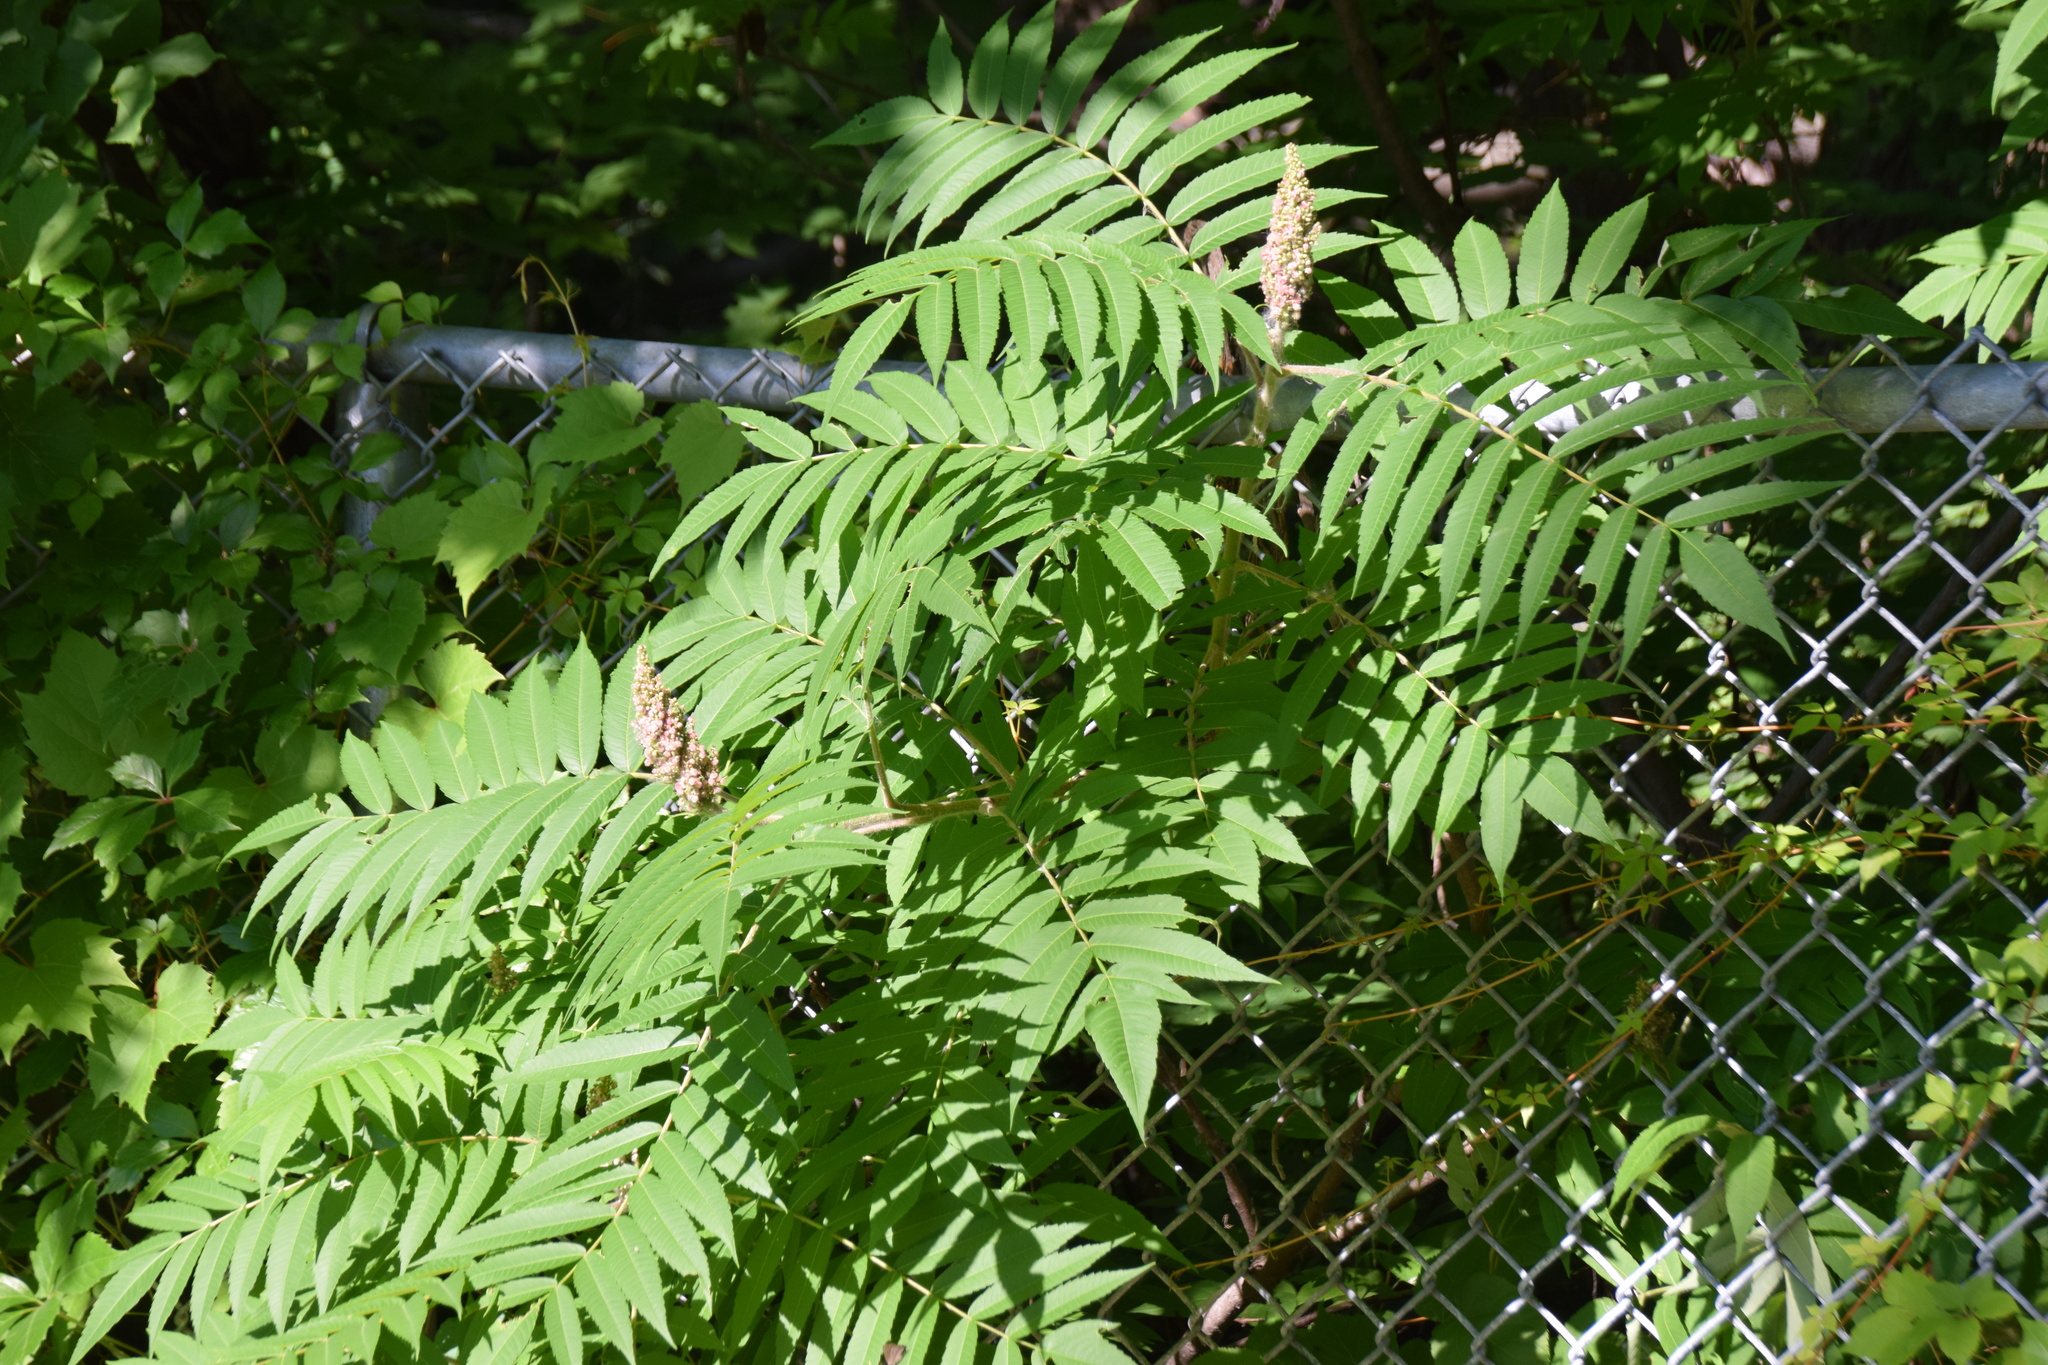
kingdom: Plantae
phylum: Tracheophyta
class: Magnoliopsida
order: Sapindales
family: Anacardiaceae
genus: Rhus
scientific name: Rhus typhina
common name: Staghorn sumac
